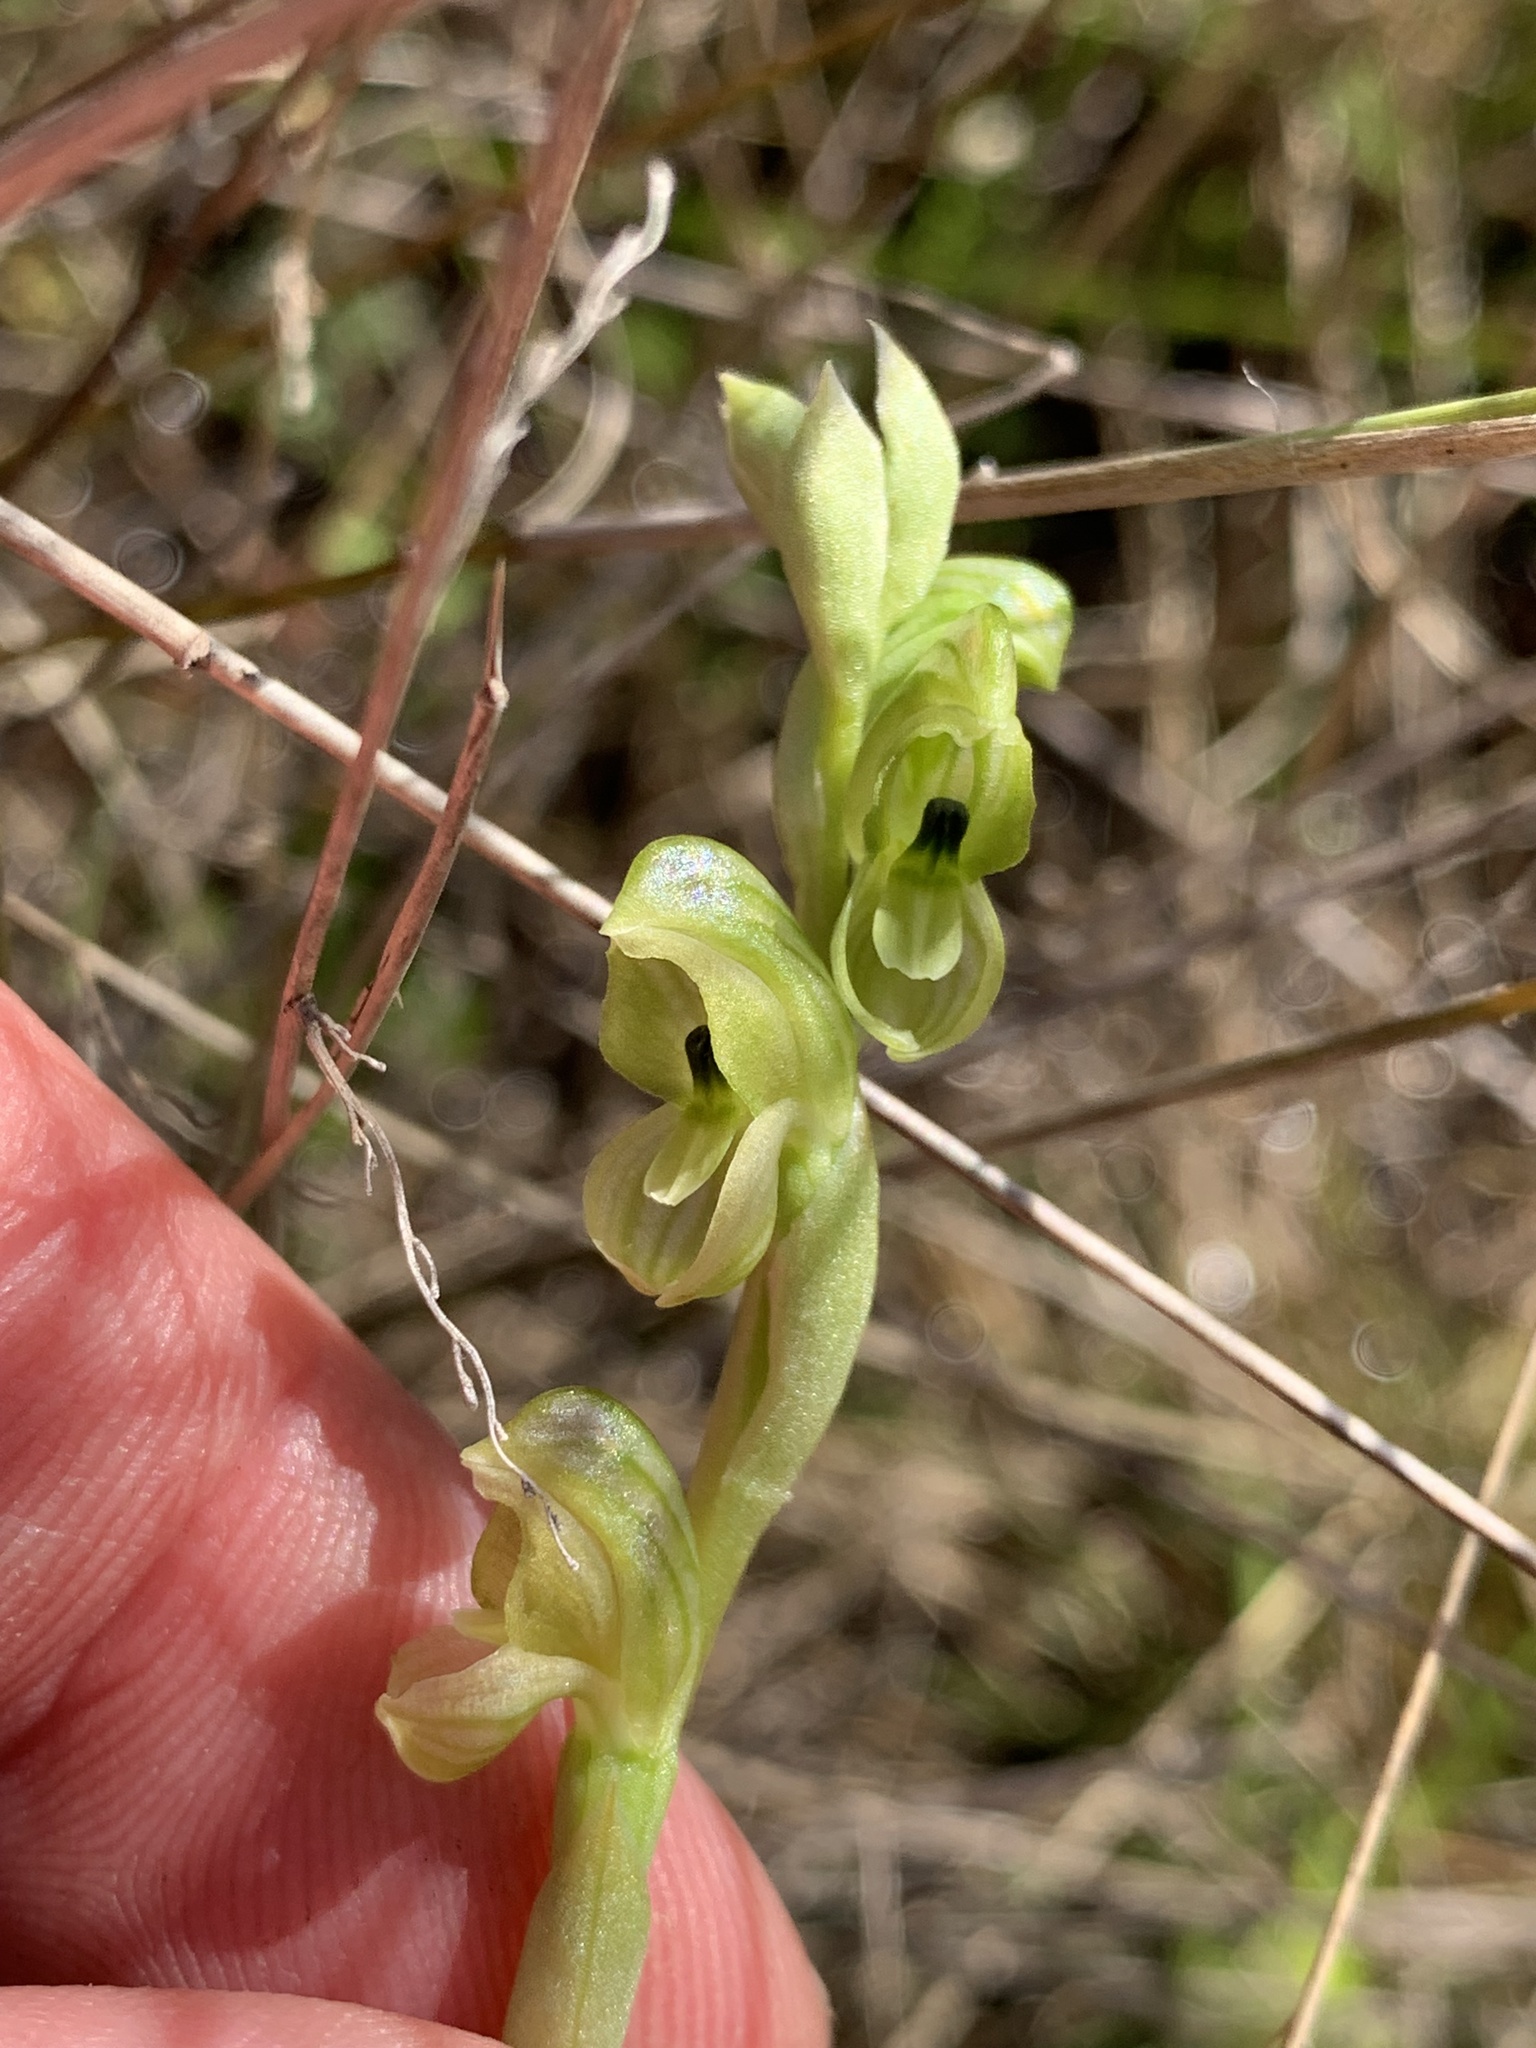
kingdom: Plantae
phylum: Tracheophyta
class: Liliopsida
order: Asparagales
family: Orchidaceae
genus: Pterostylis
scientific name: Pterostylis bicolor
